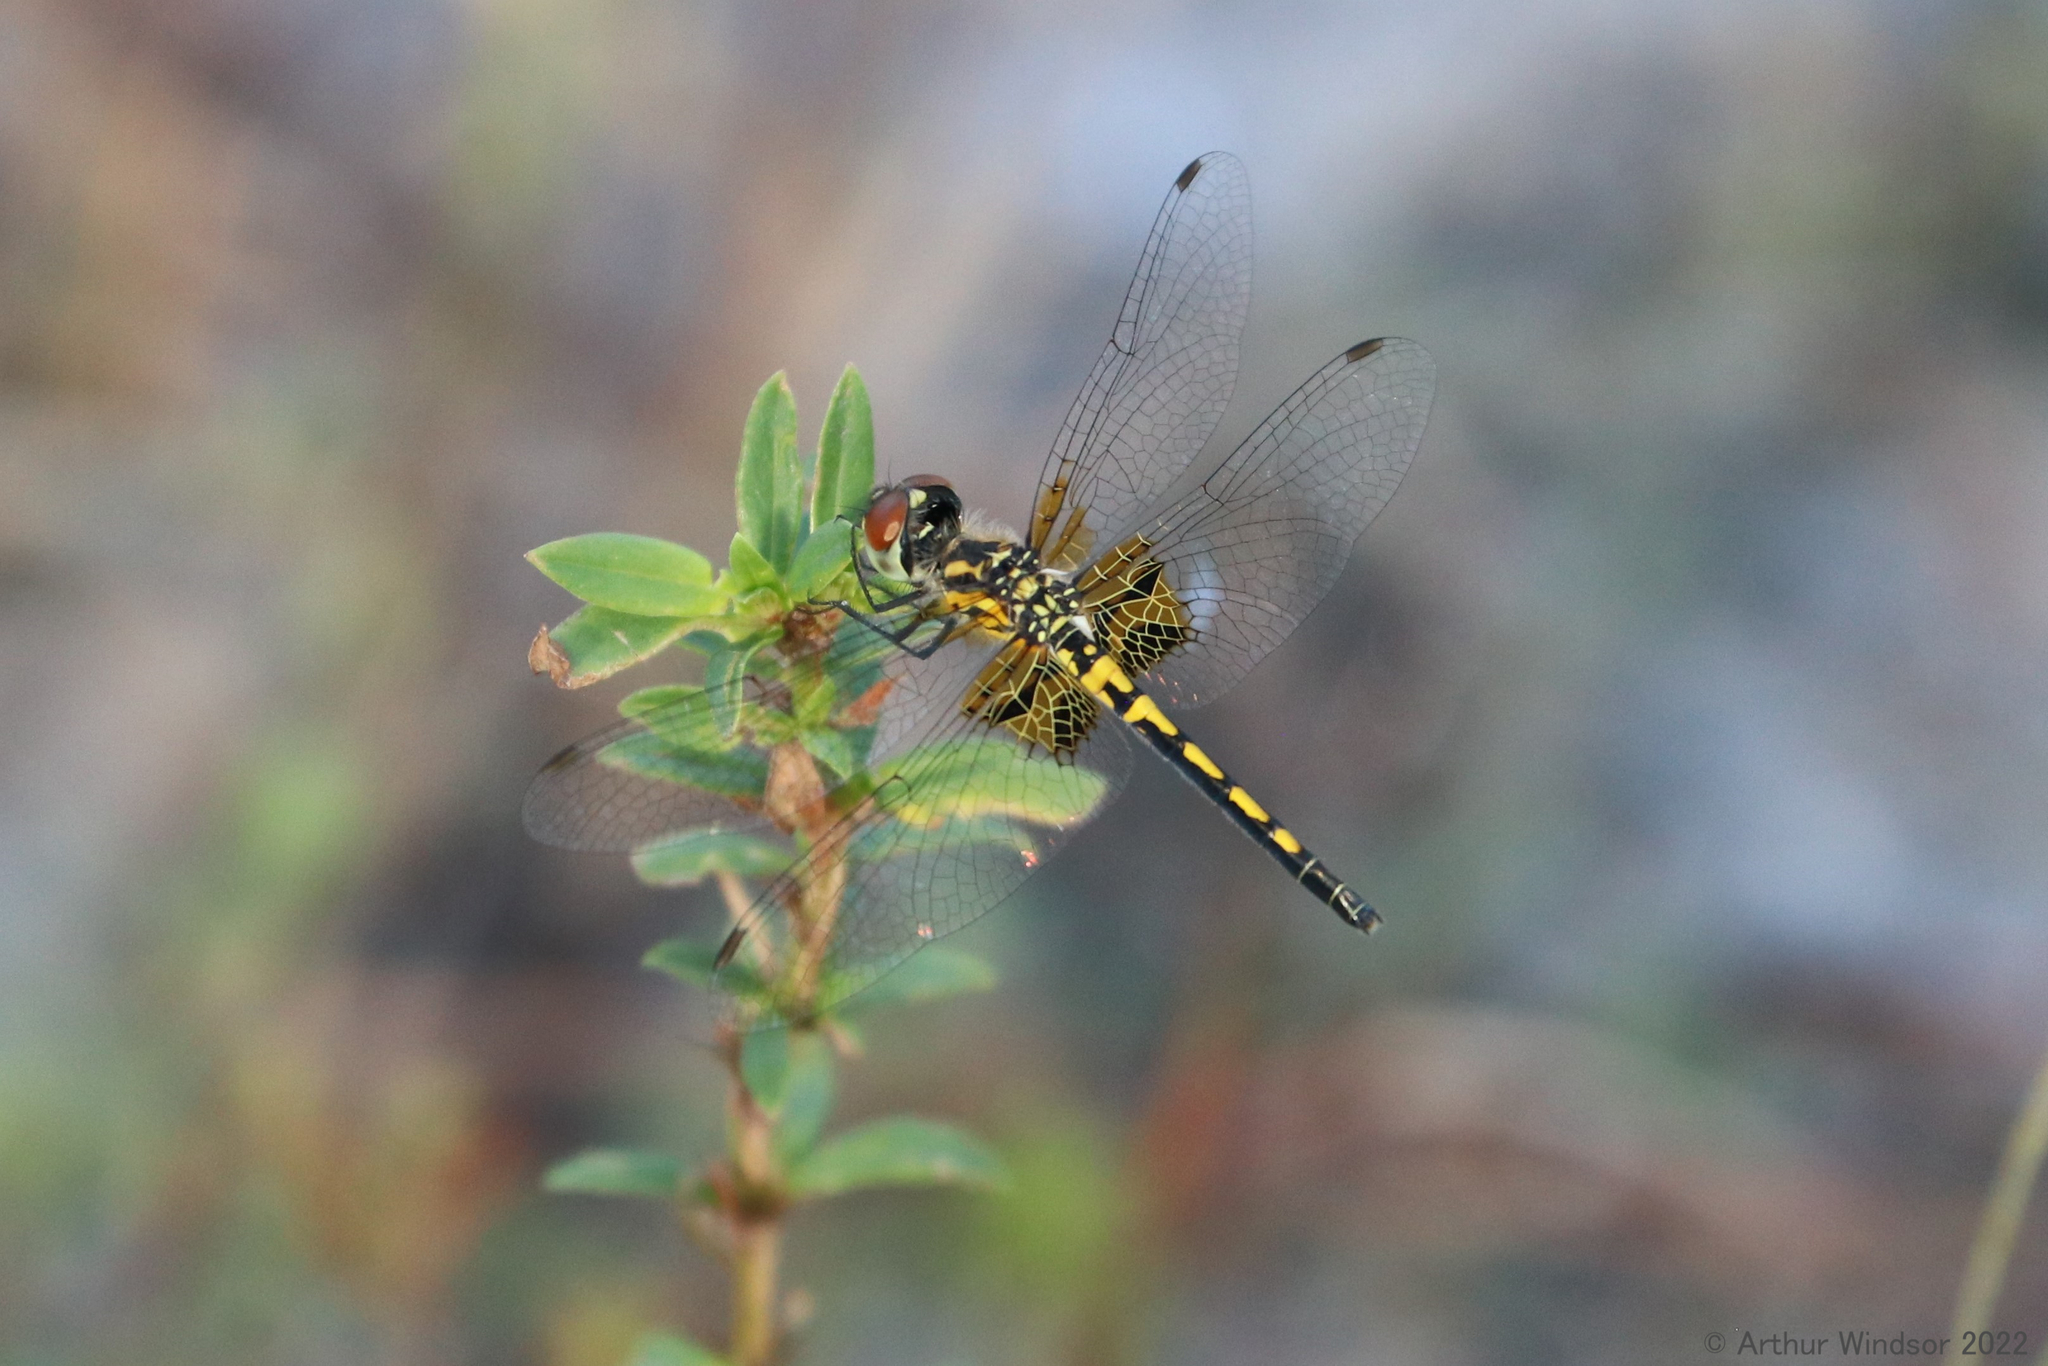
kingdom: Animalia
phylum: Arthropoda
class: Insecta
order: Odonata
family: Libellulidae
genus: Celithemis
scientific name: Celithemis ornata
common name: Ornate pennant
